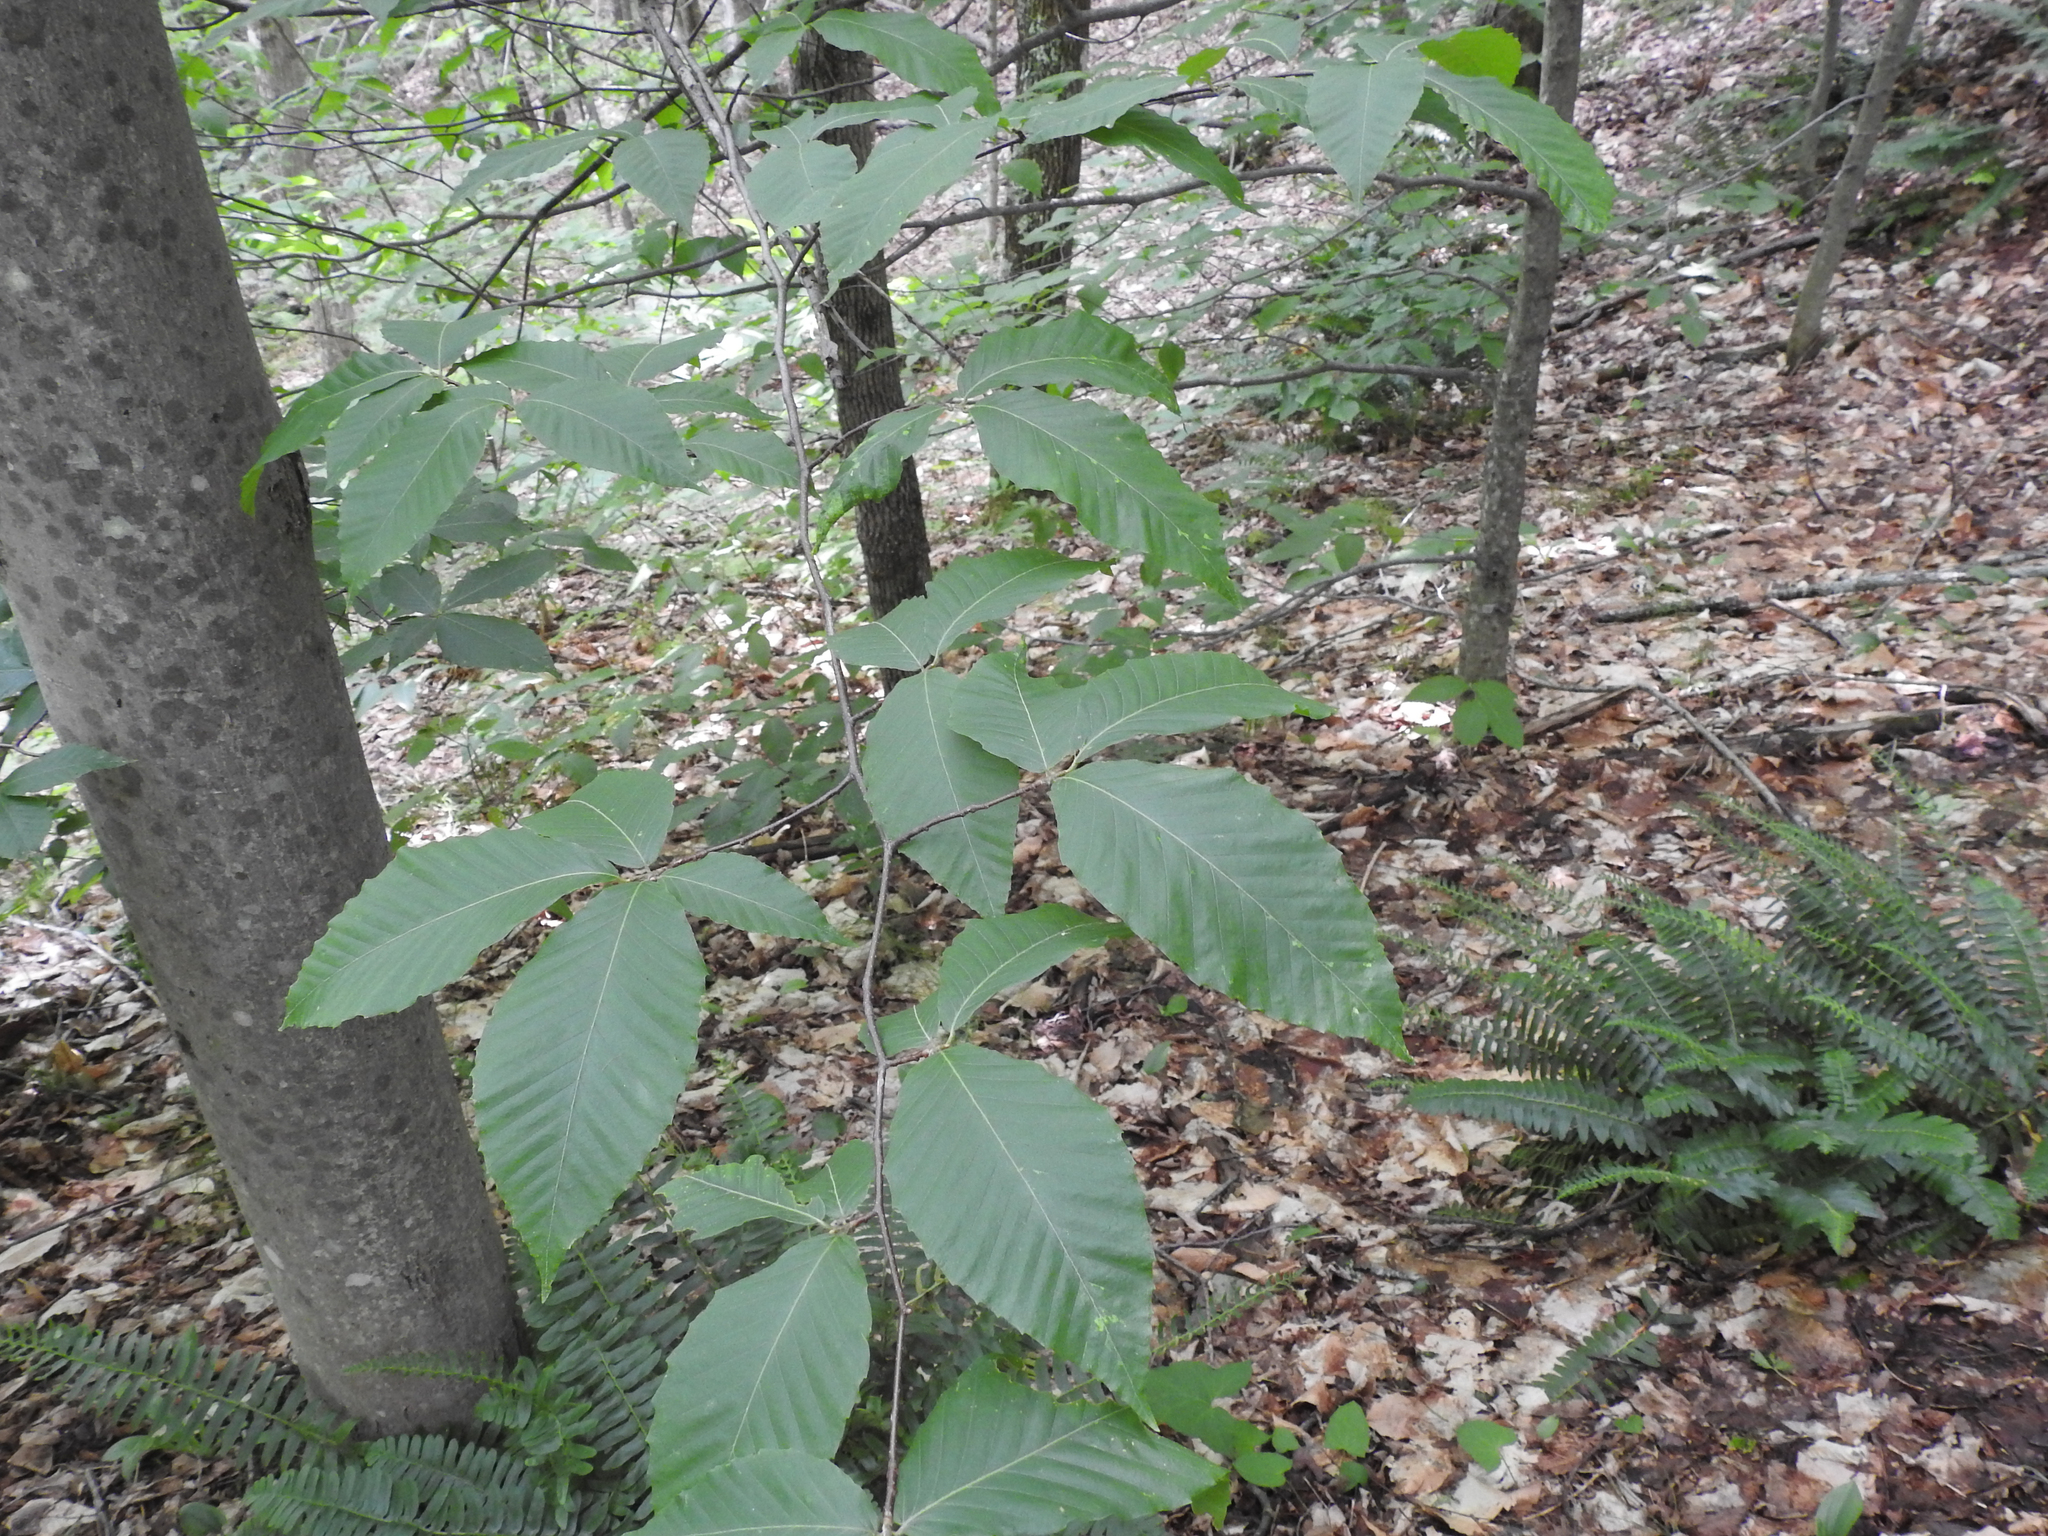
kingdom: Plantae
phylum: Tracheophyta
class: Magnoliopsida
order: Fagales
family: Fagaceae
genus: Fagus
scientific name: Fagus grandifolia
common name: American beech
